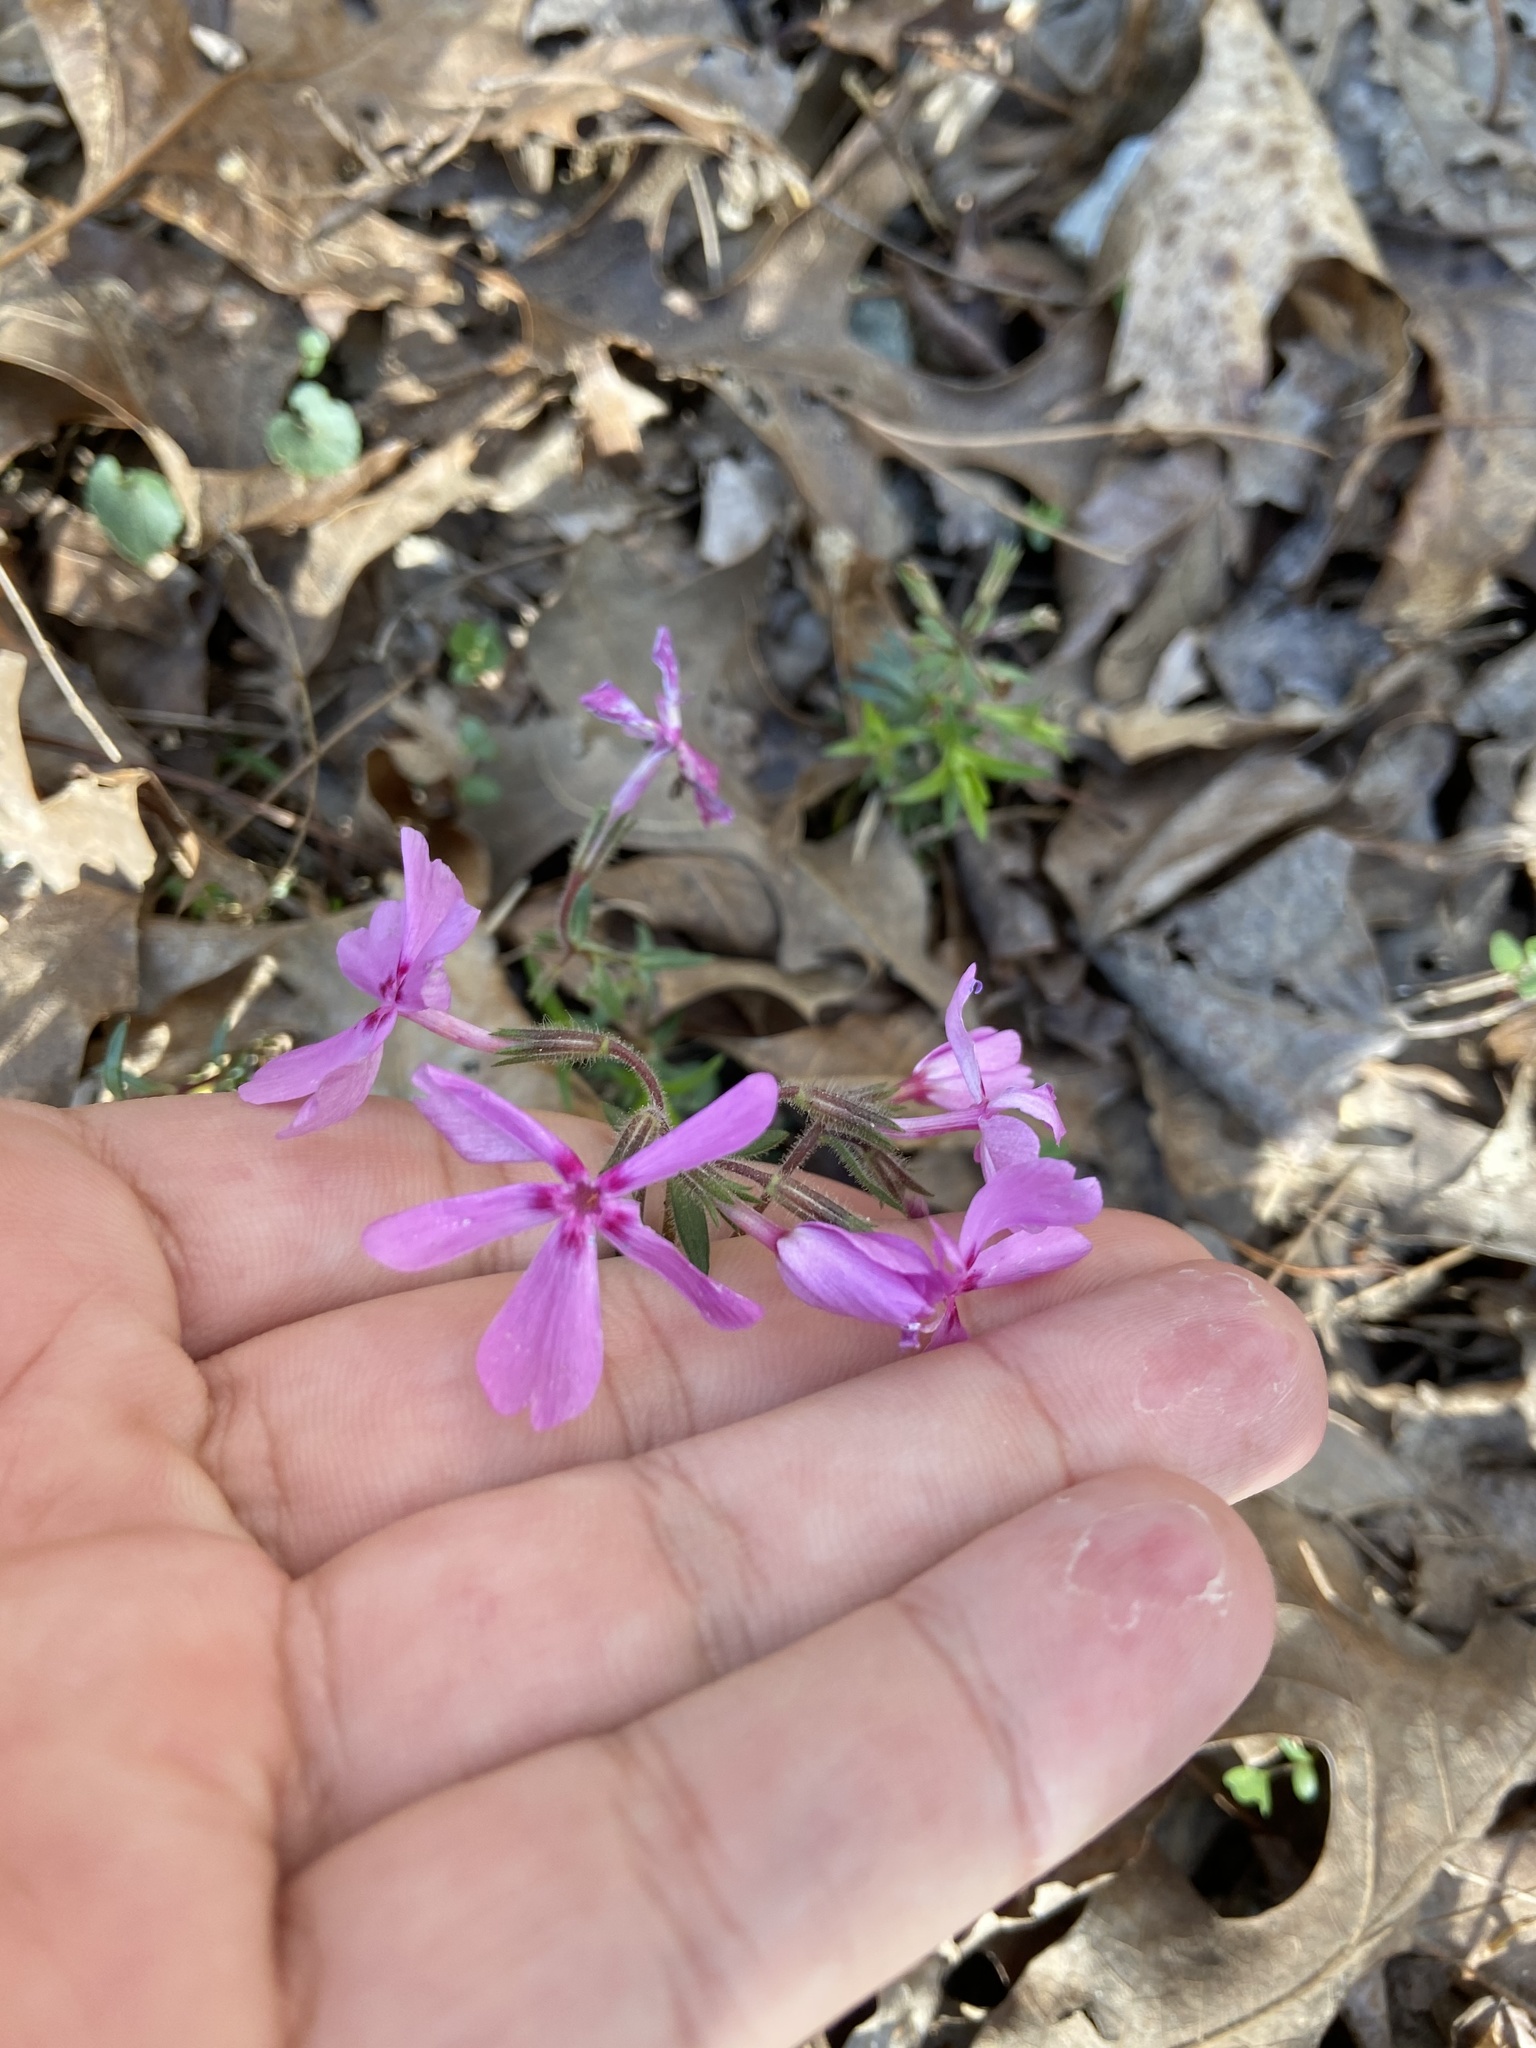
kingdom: Plantae
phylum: Tracheophyta
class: Magnoliopsida
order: Ericales
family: Polemoniaceae
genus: Phlox
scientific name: Phlox nivalis
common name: Trailing phlox
